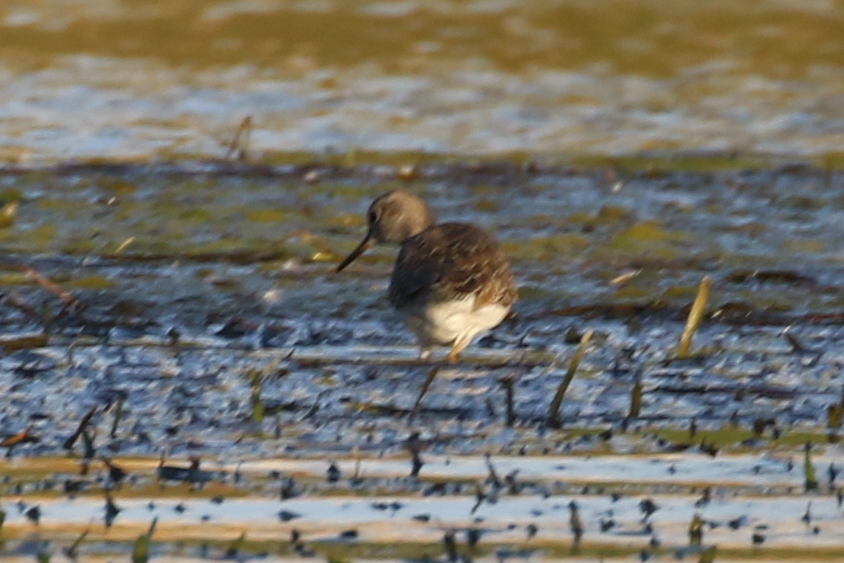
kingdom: Animalia
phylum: Chordata
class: Aves
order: Charadriiformes
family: Scolopacidae
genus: Tringa
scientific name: Tringa glareola
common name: Wood sandpiper
